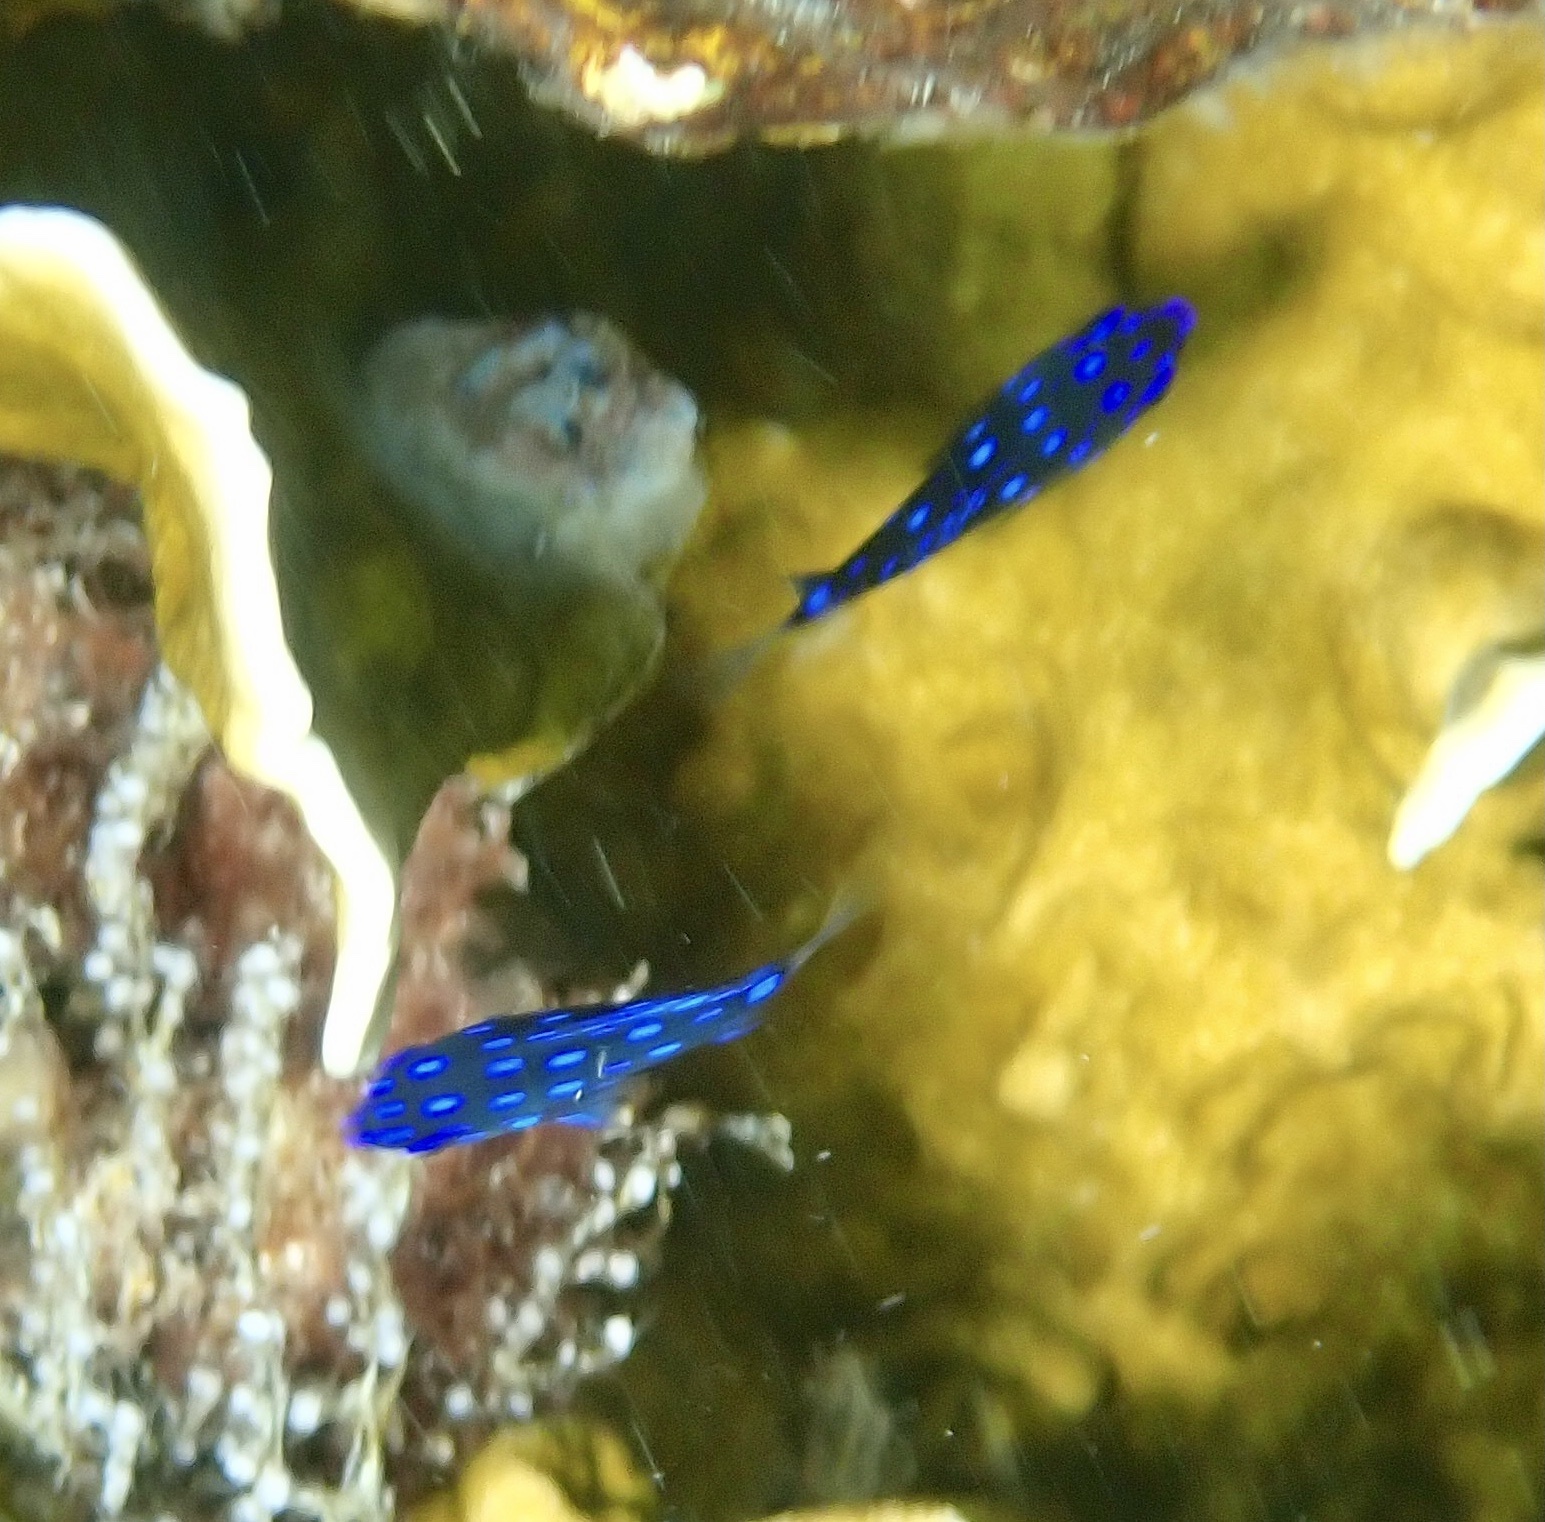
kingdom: Animalia
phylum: Chordata
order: Perciformes
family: Pomacentridae
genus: Microspathodon
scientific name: Microspathodon chrysurus
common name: Yellowtail damselfish
